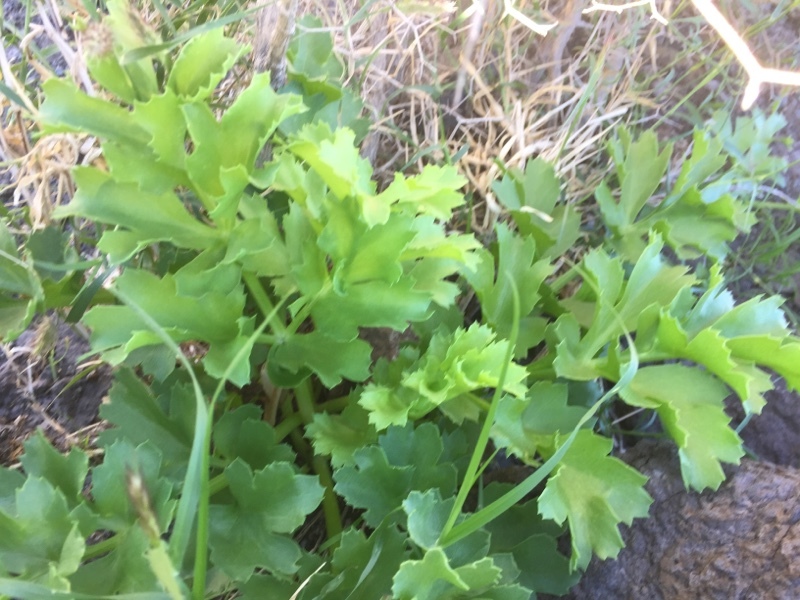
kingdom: Plantae
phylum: Tracheophyta
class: Magnoliopsida
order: Apiales
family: Apiaceae
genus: Astydamia
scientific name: Astydamia latifolia
